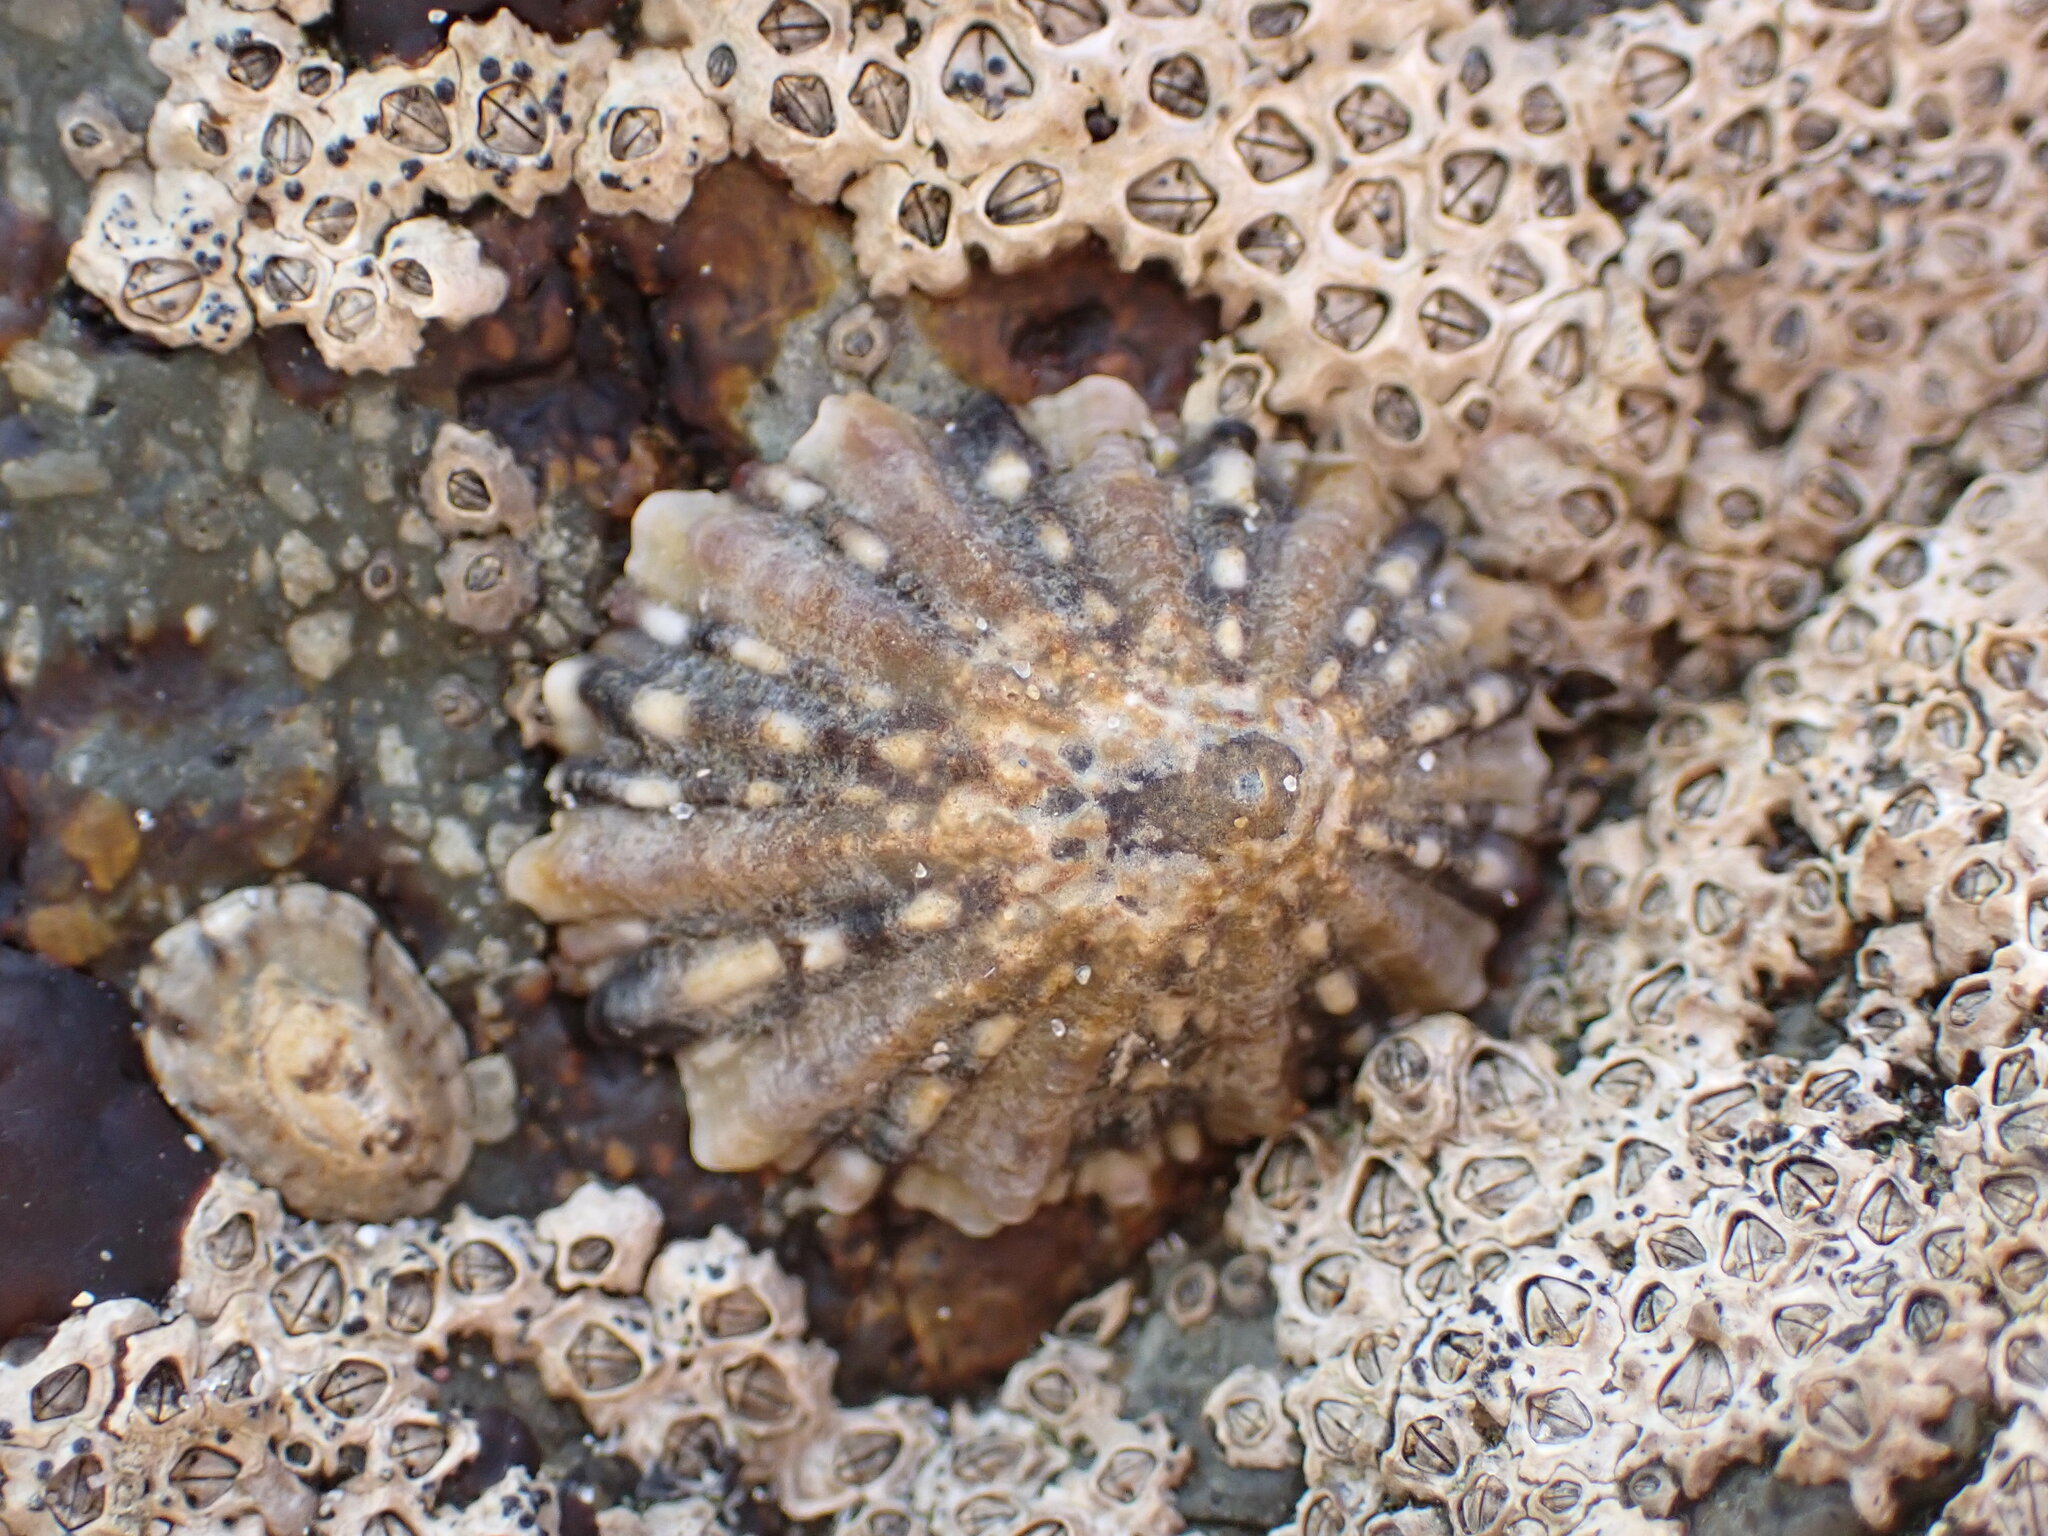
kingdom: Animalia
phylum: Mollusca
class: Gastropoda
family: Nacellidae
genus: Cellana
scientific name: Cellana ornata
